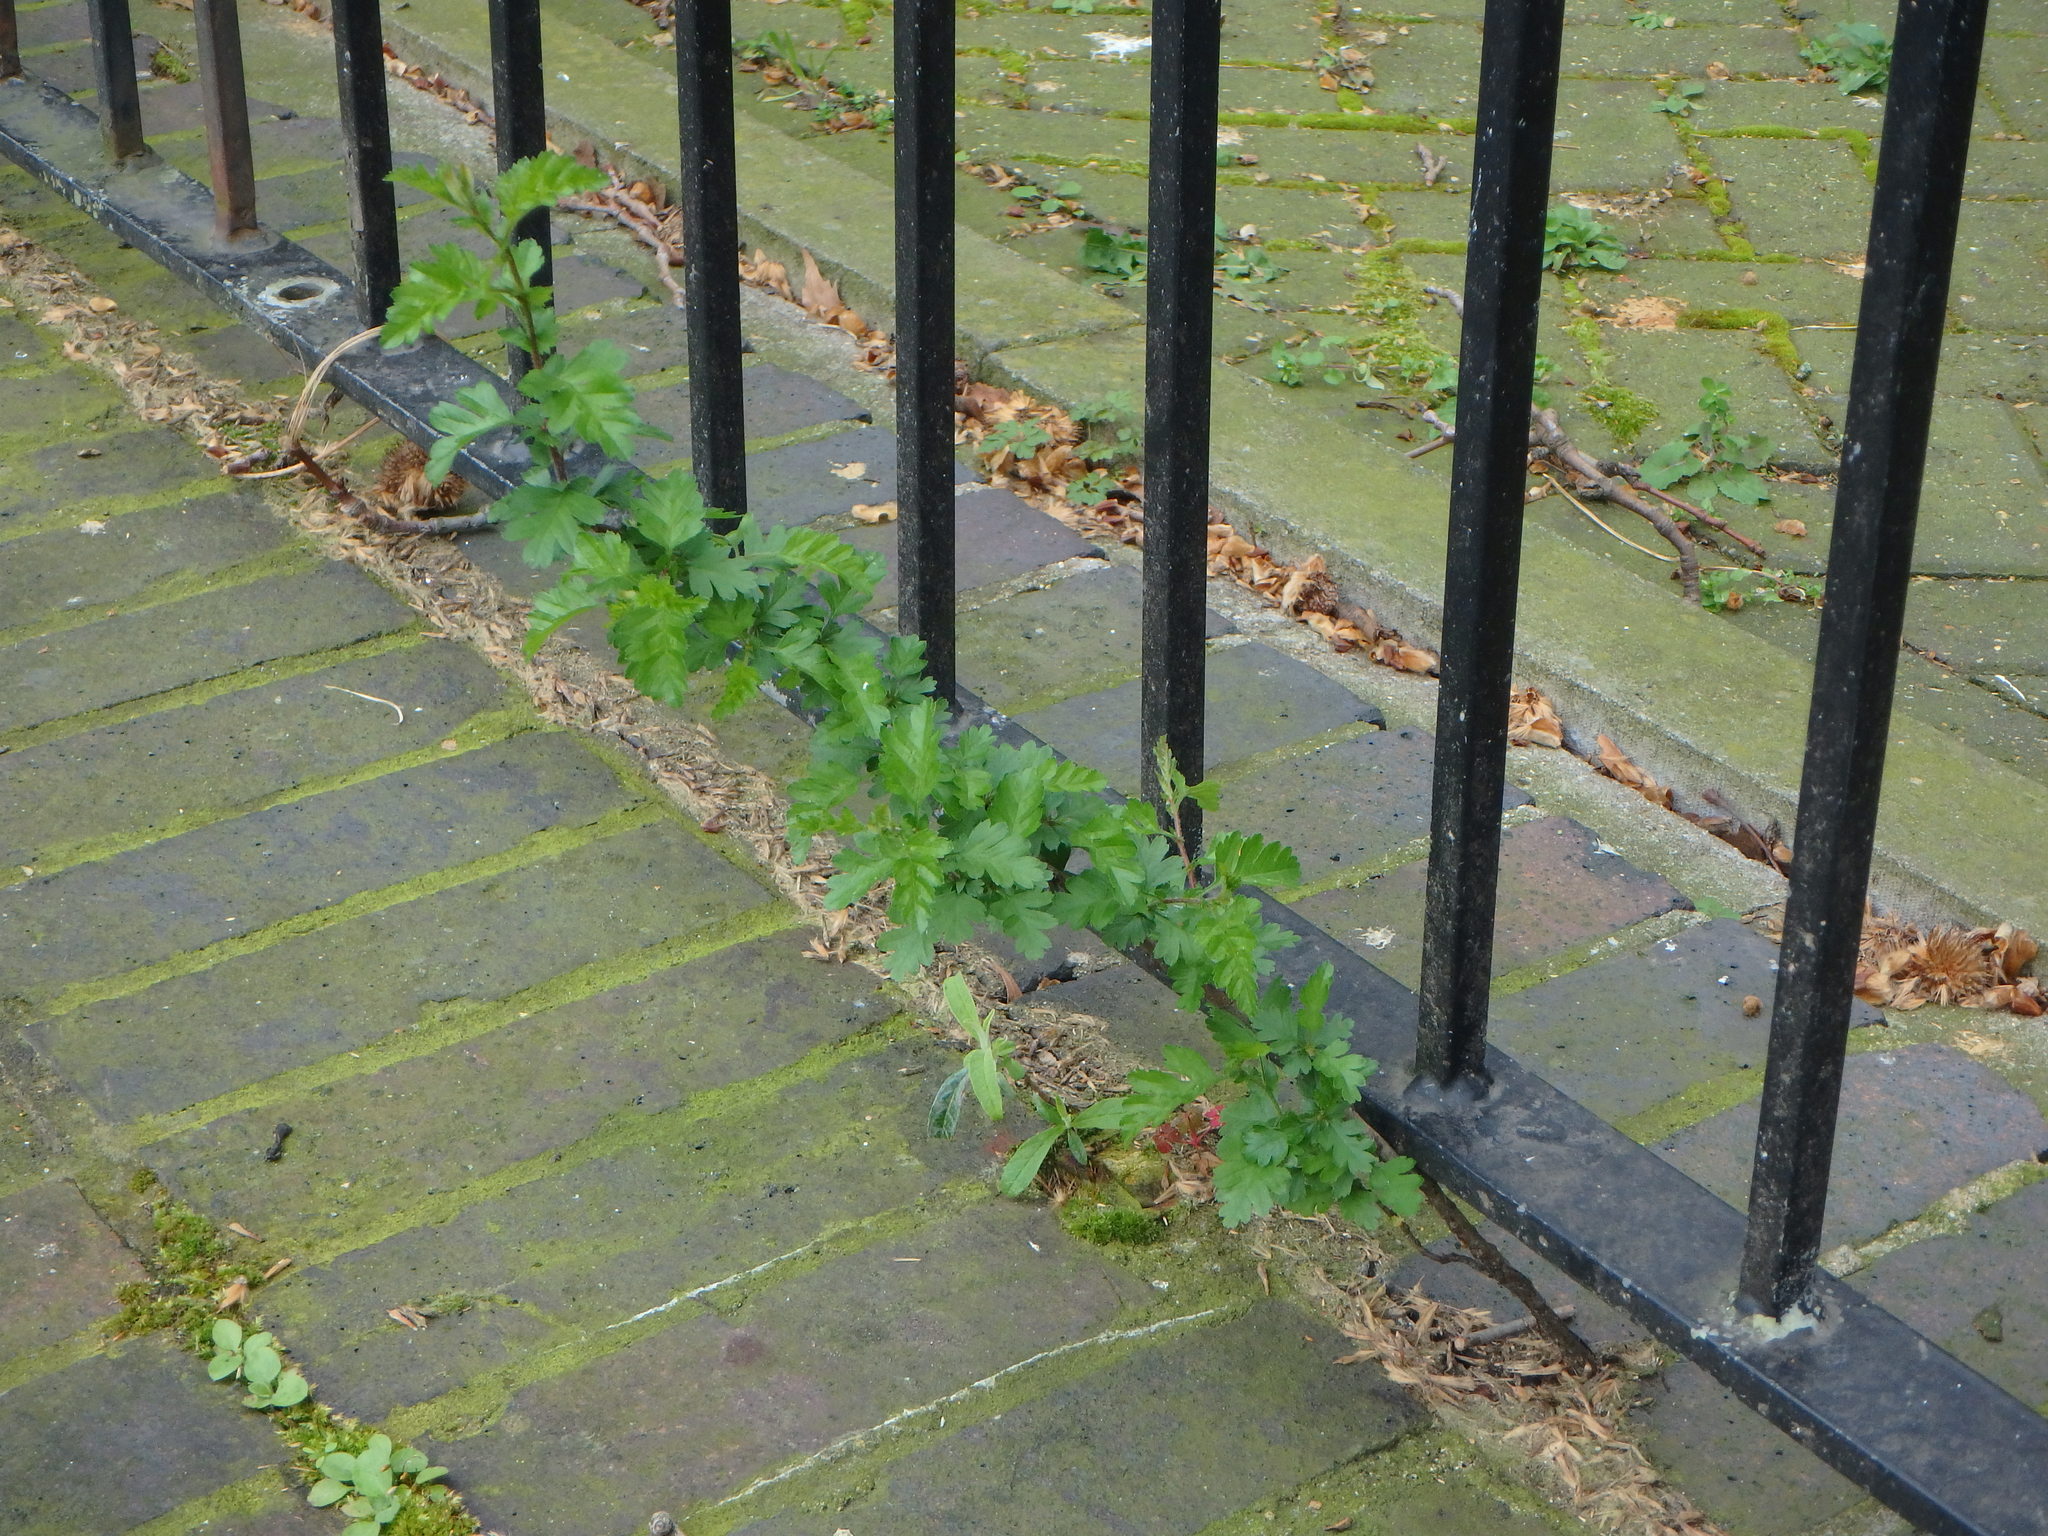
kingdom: Plantae
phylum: Tracheophyta
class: Magnoliopsida
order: Rosales
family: Rosaceae
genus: Crataegus
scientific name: Crataegus monogyna
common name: Hawthorn
